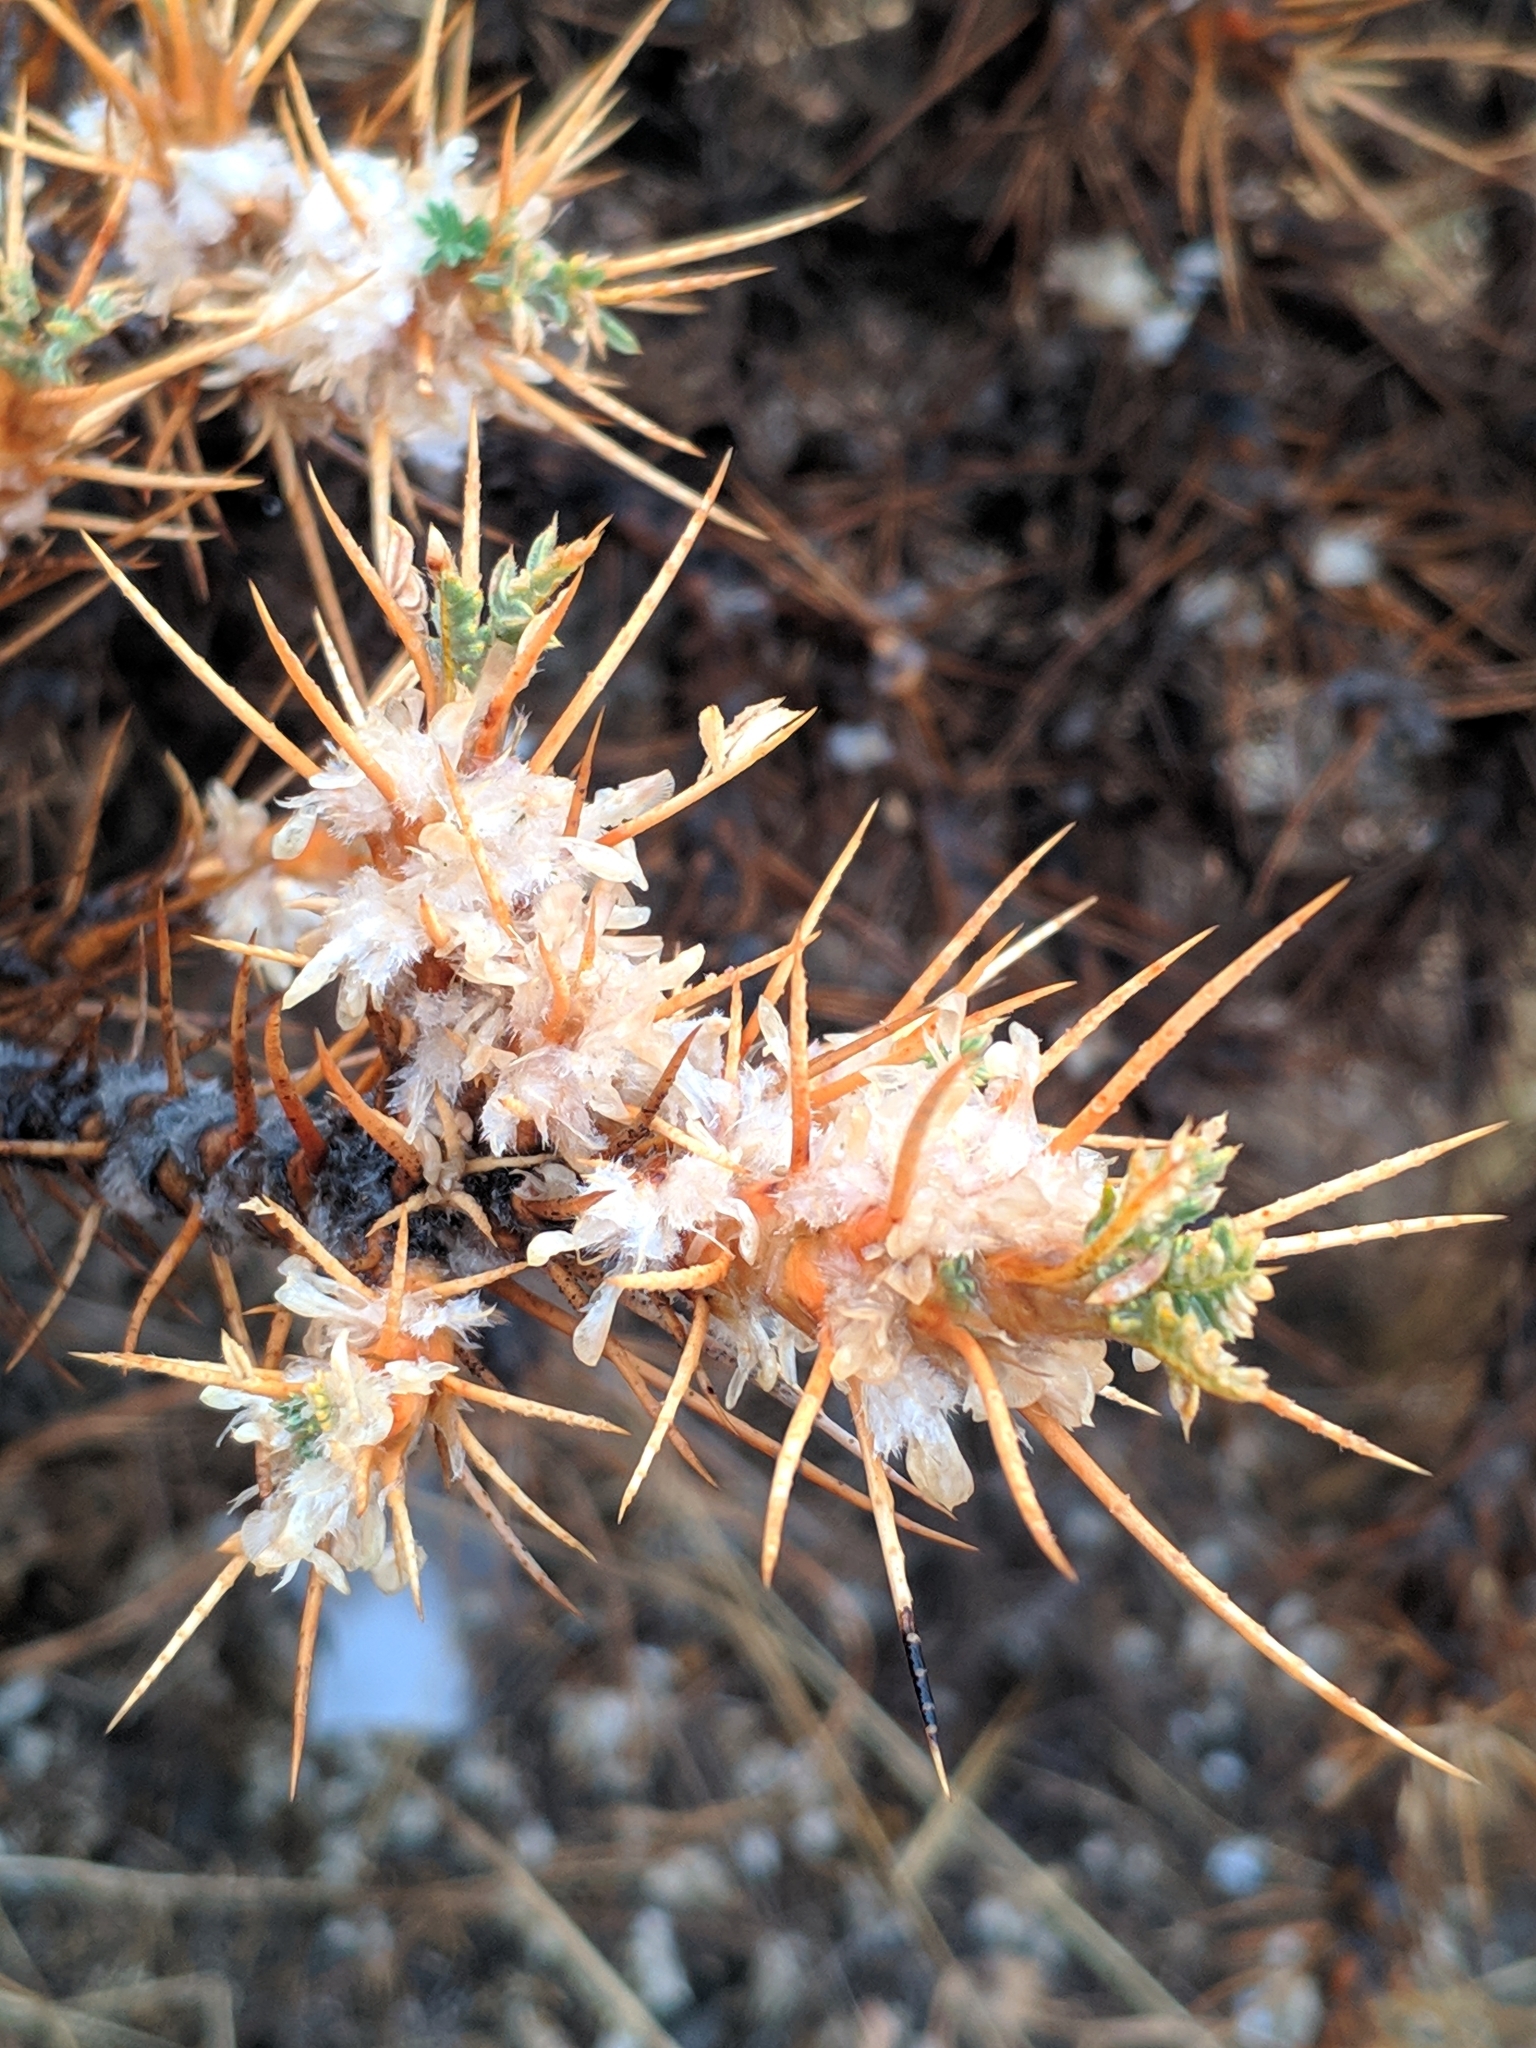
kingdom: Plantae
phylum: Tracheophyta
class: Magnoliopsida
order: Fabales
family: Fabaceae
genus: Astragalus
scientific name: Astragalus microcephalus
